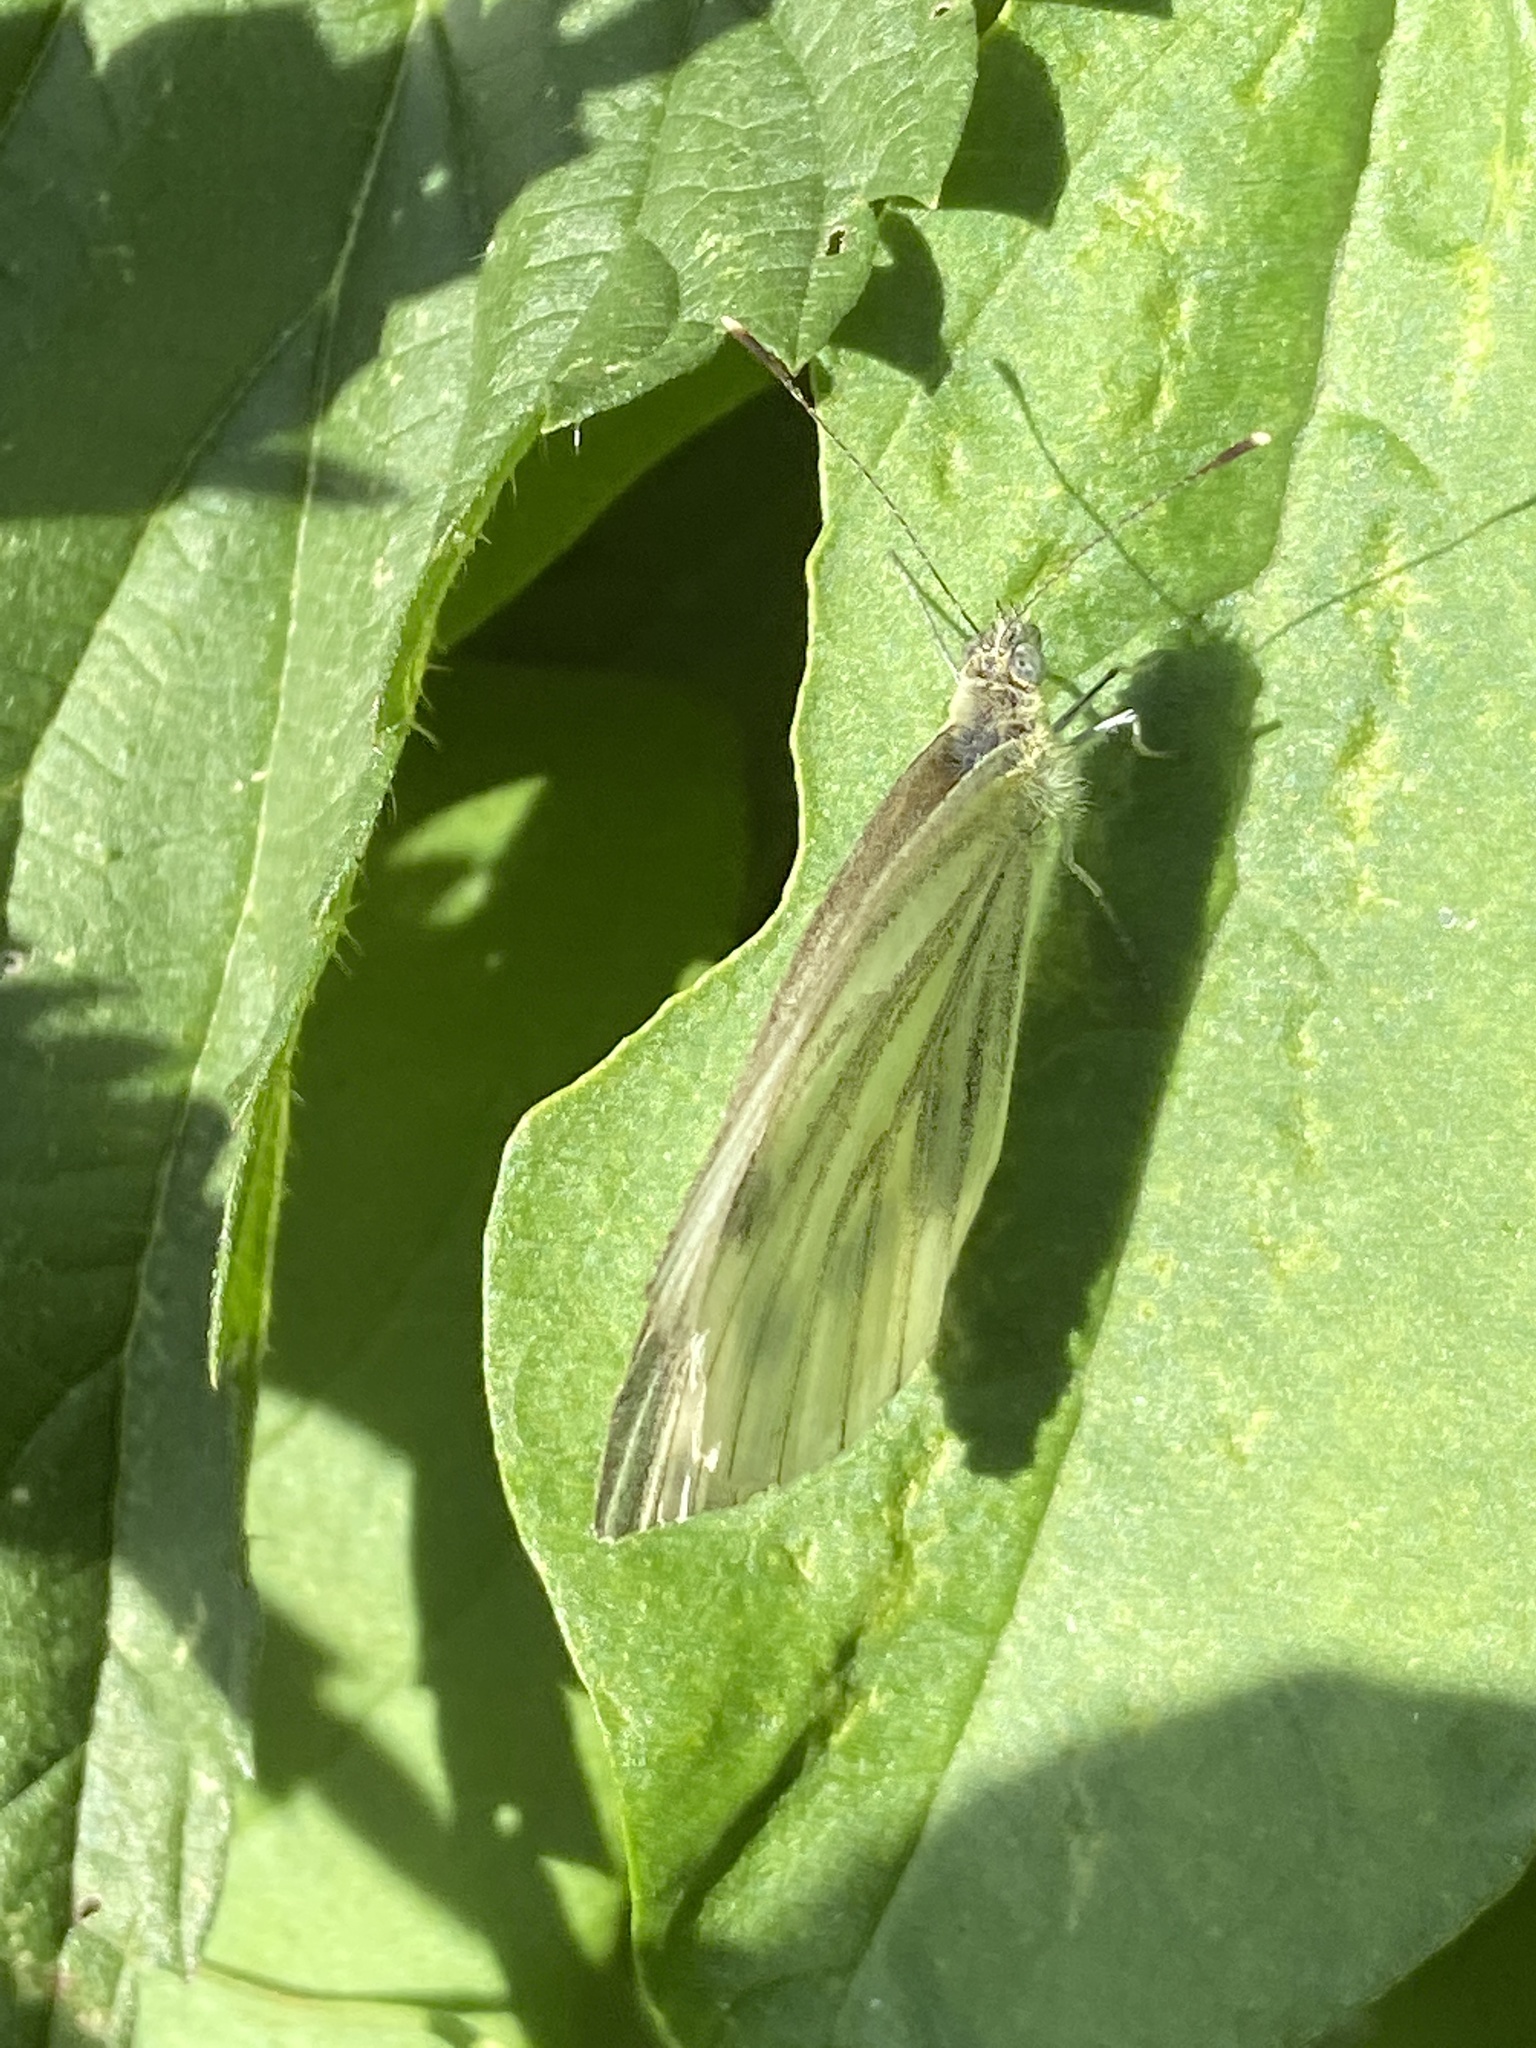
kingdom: Animalia
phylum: Arthropoda
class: Insecta
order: Lepidoptera
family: Pieridae
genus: Pieris
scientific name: Pieris napi
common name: Green-veined white
